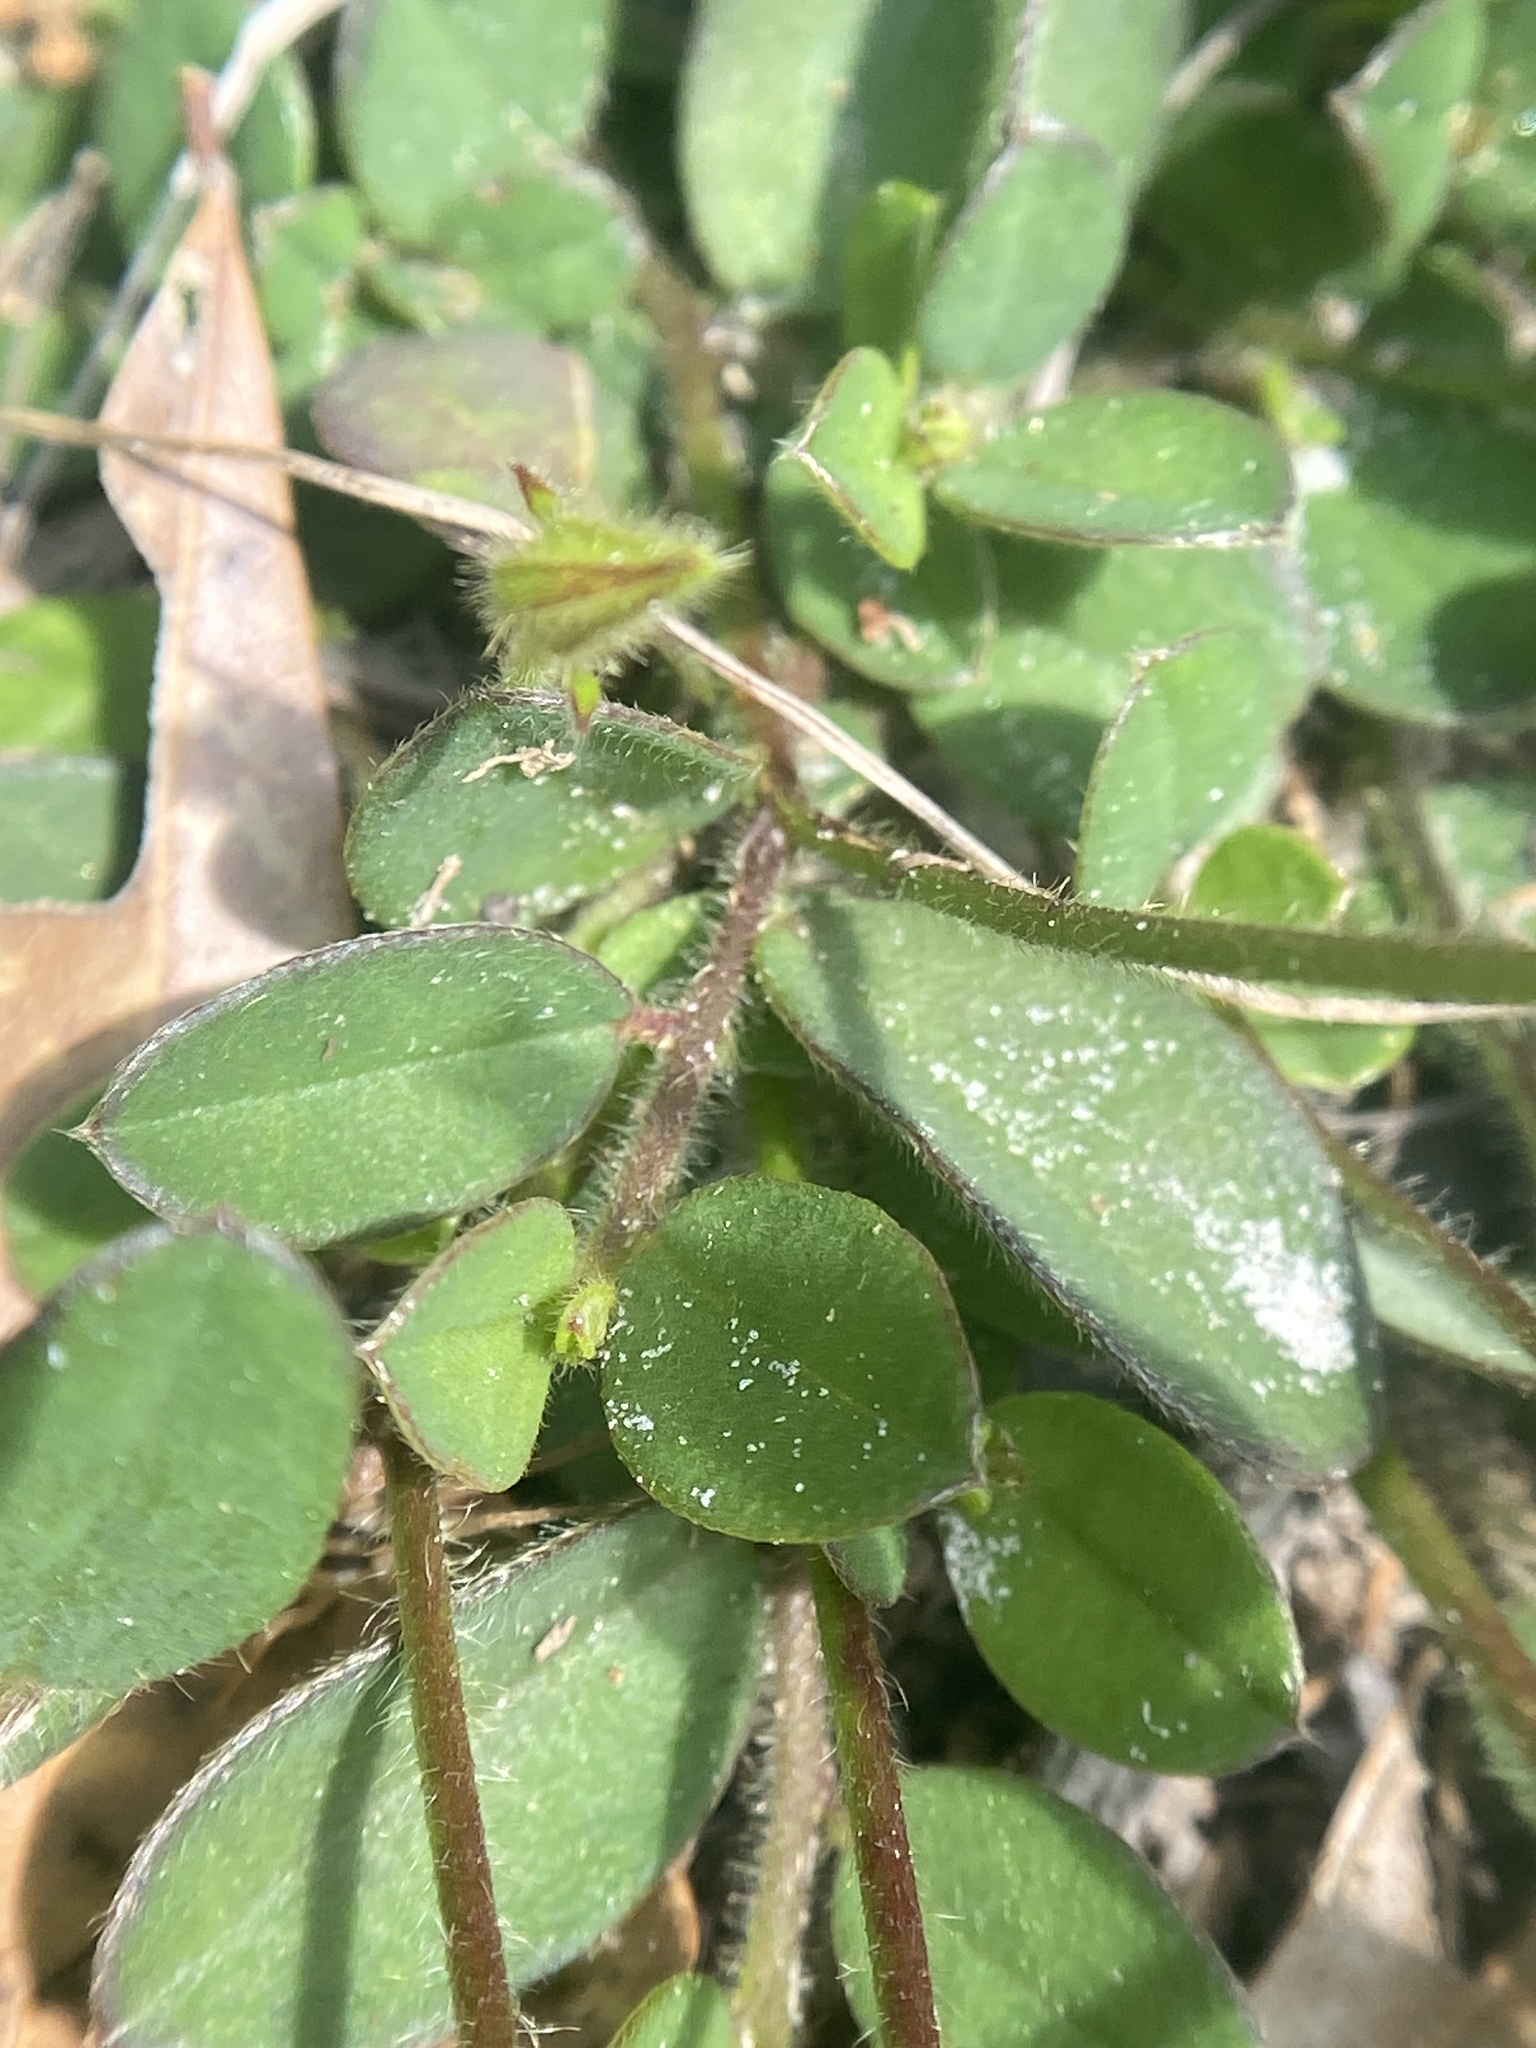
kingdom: Plantae
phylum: Tracheophyta
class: Magnoliopsida
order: Fabales
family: Fabaceae
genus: Crotalaria
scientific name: Crotalaria rotundifolia
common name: Prostrate rattlebox
